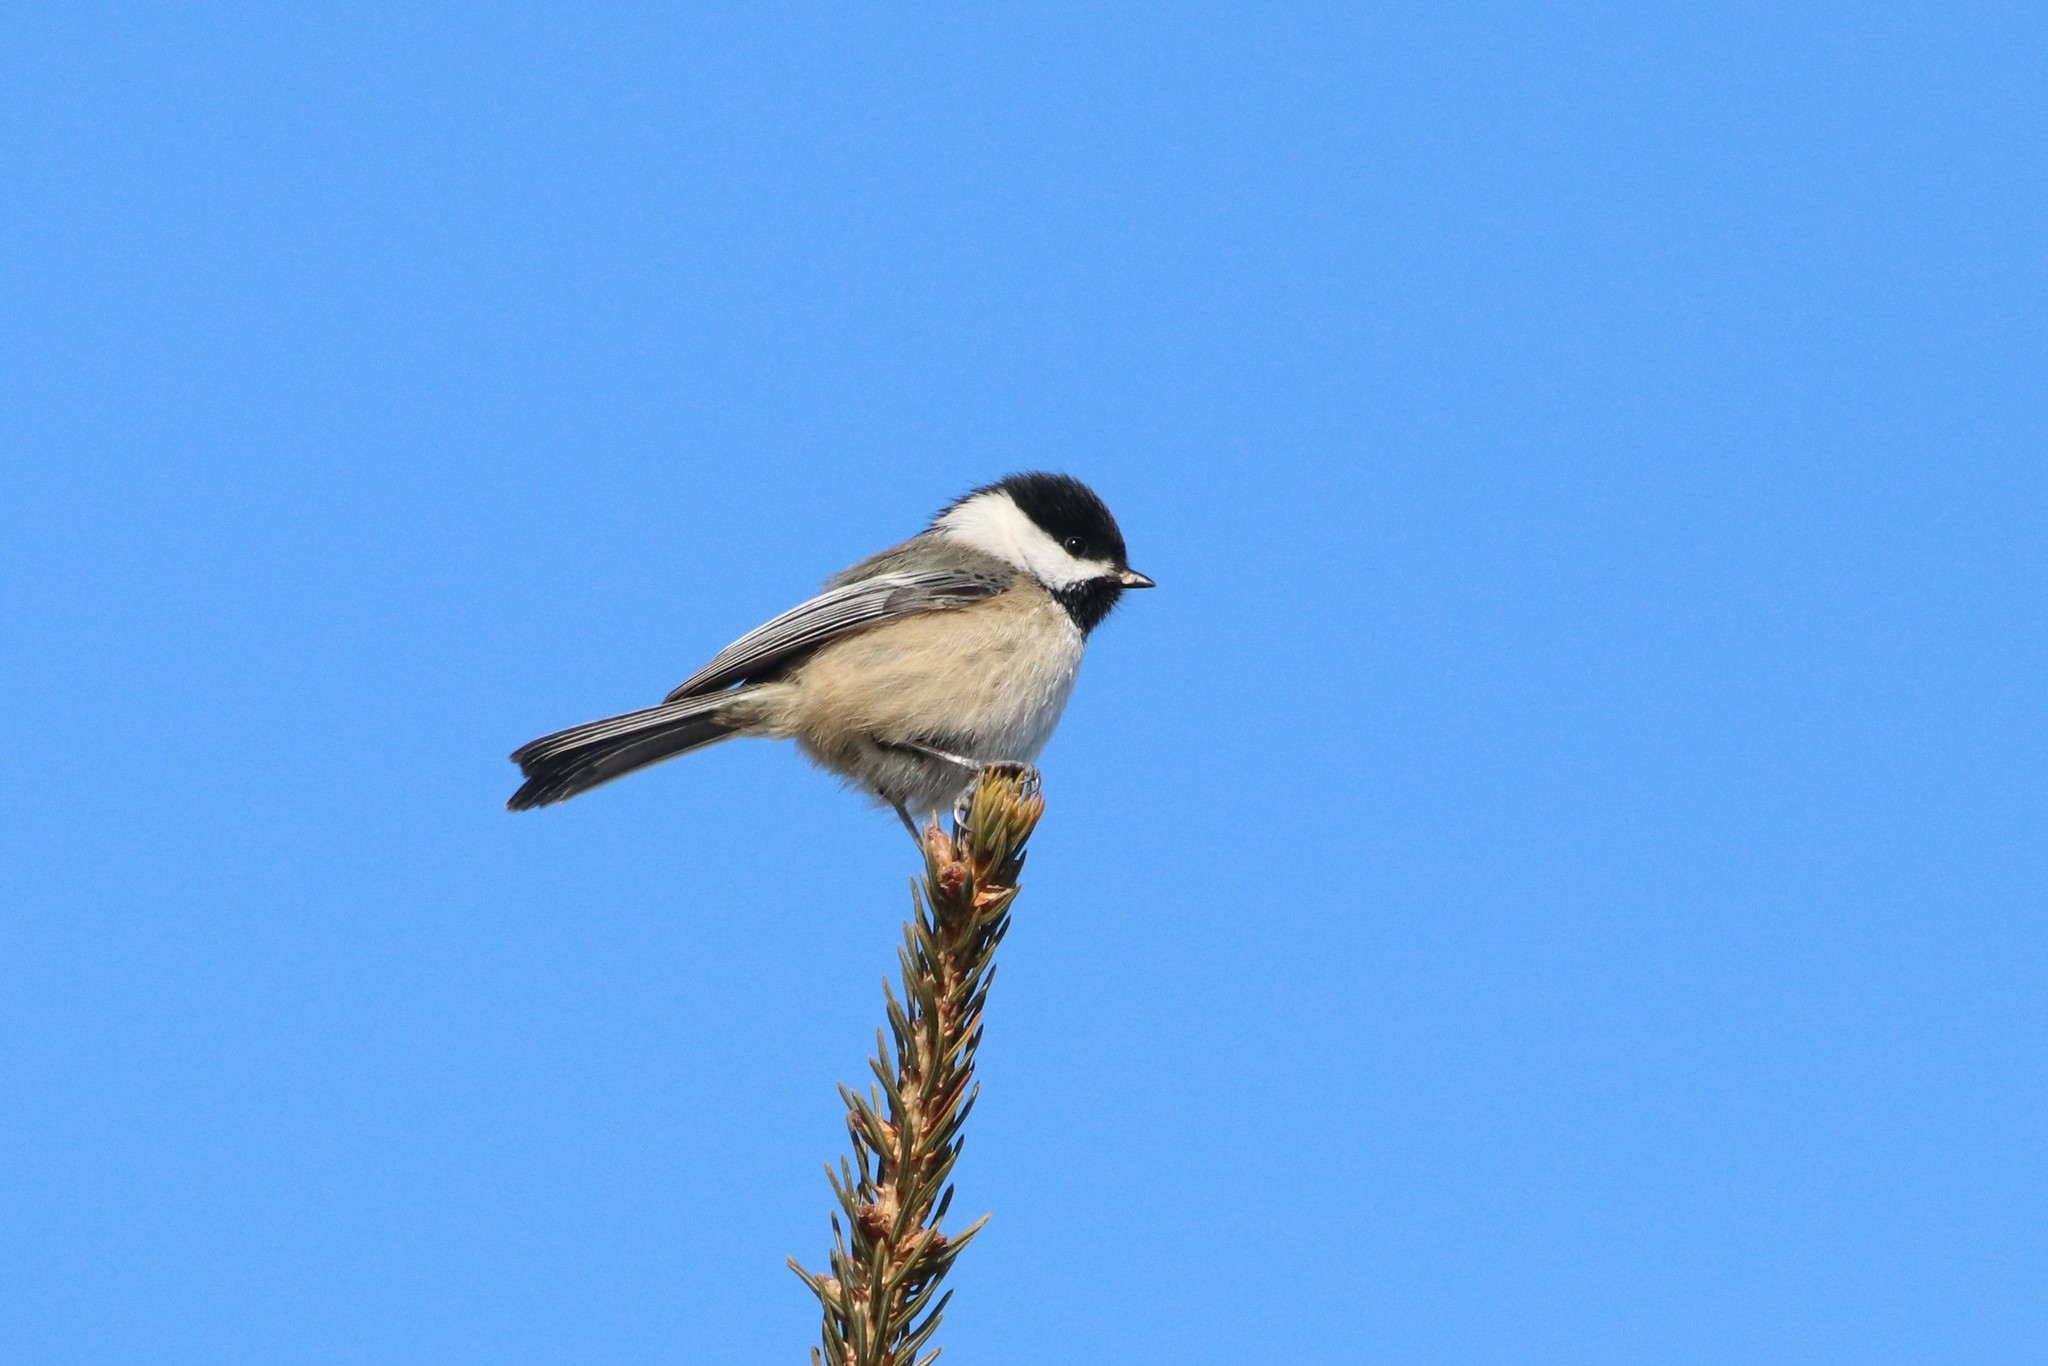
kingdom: Animalia
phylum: Chordata
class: Aves
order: Passeriformes
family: Paridae
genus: Poecile
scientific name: Poecile atricapillus
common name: Black-capped chickadee
